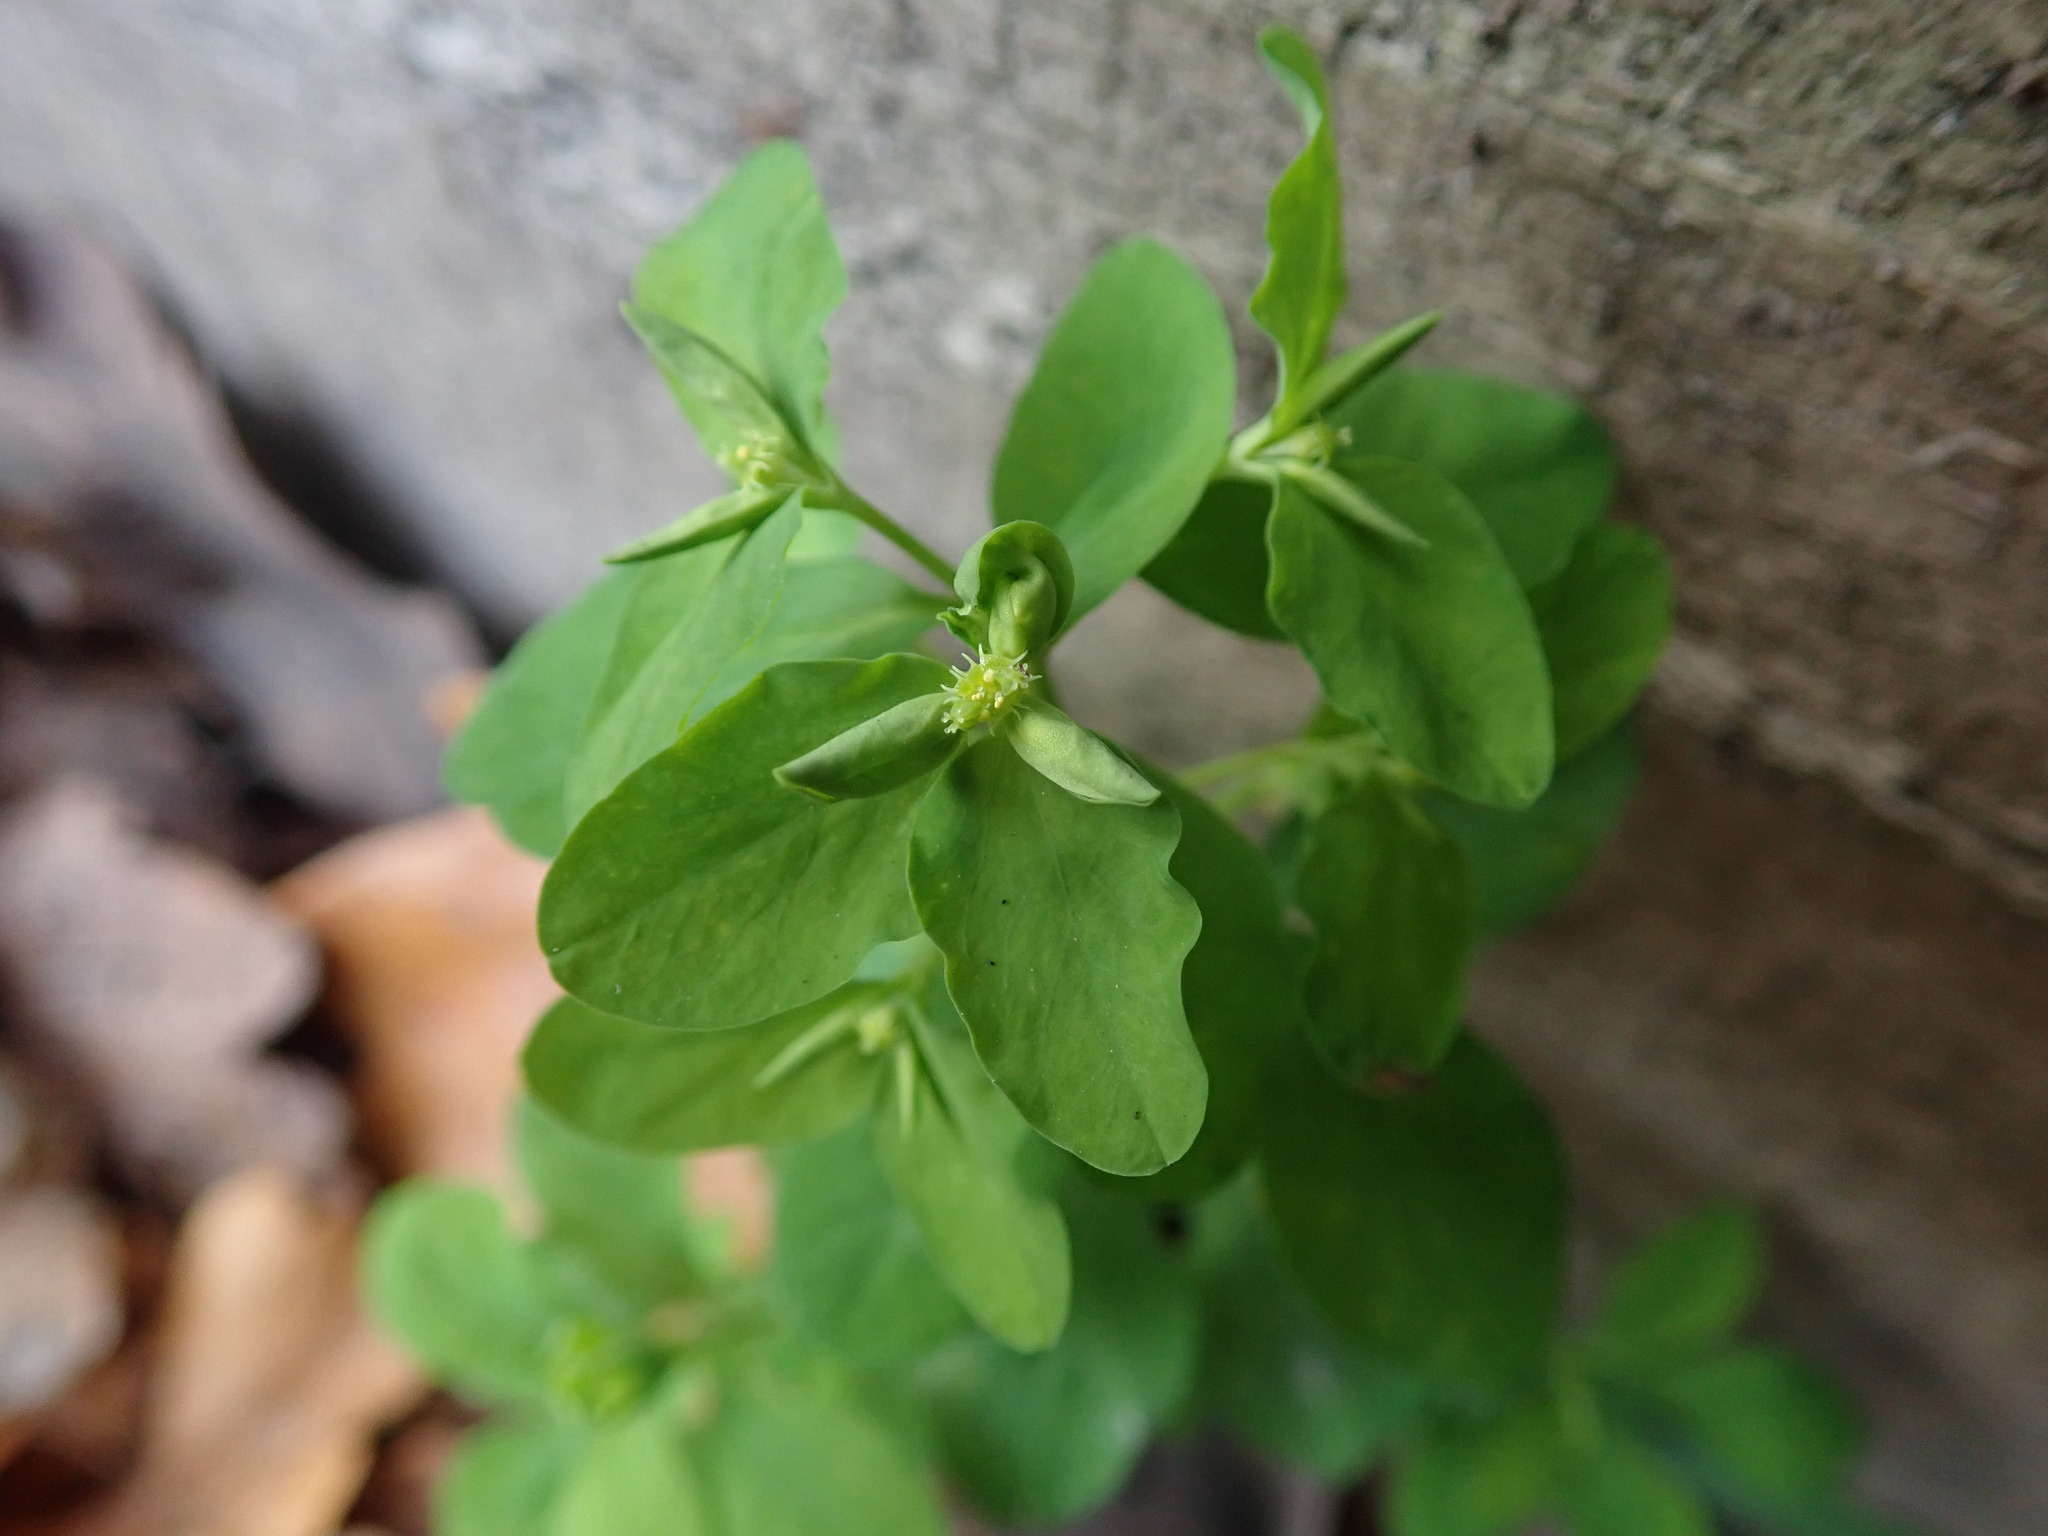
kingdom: Plantae
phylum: Tracheophyta
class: Magnoliopsida
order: Malpighiales
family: Euphorbiaceae
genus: Euphorbia
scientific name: Euphorbia peplus
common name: Petty spurge
